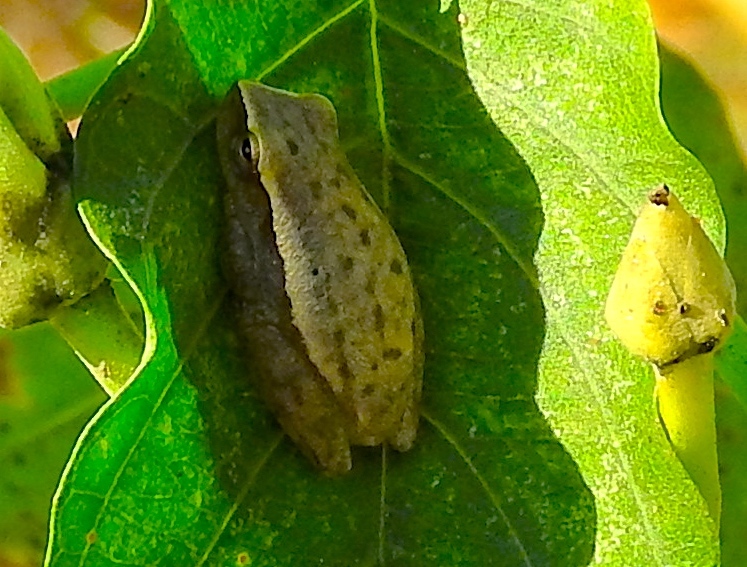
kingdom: Animalia
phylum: Chordata
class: Amphibia
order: Anura
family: Hylidae
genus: Tlalocohyla
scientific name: Tlalocohyla smithii
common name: Dwarf mexican treefrog
